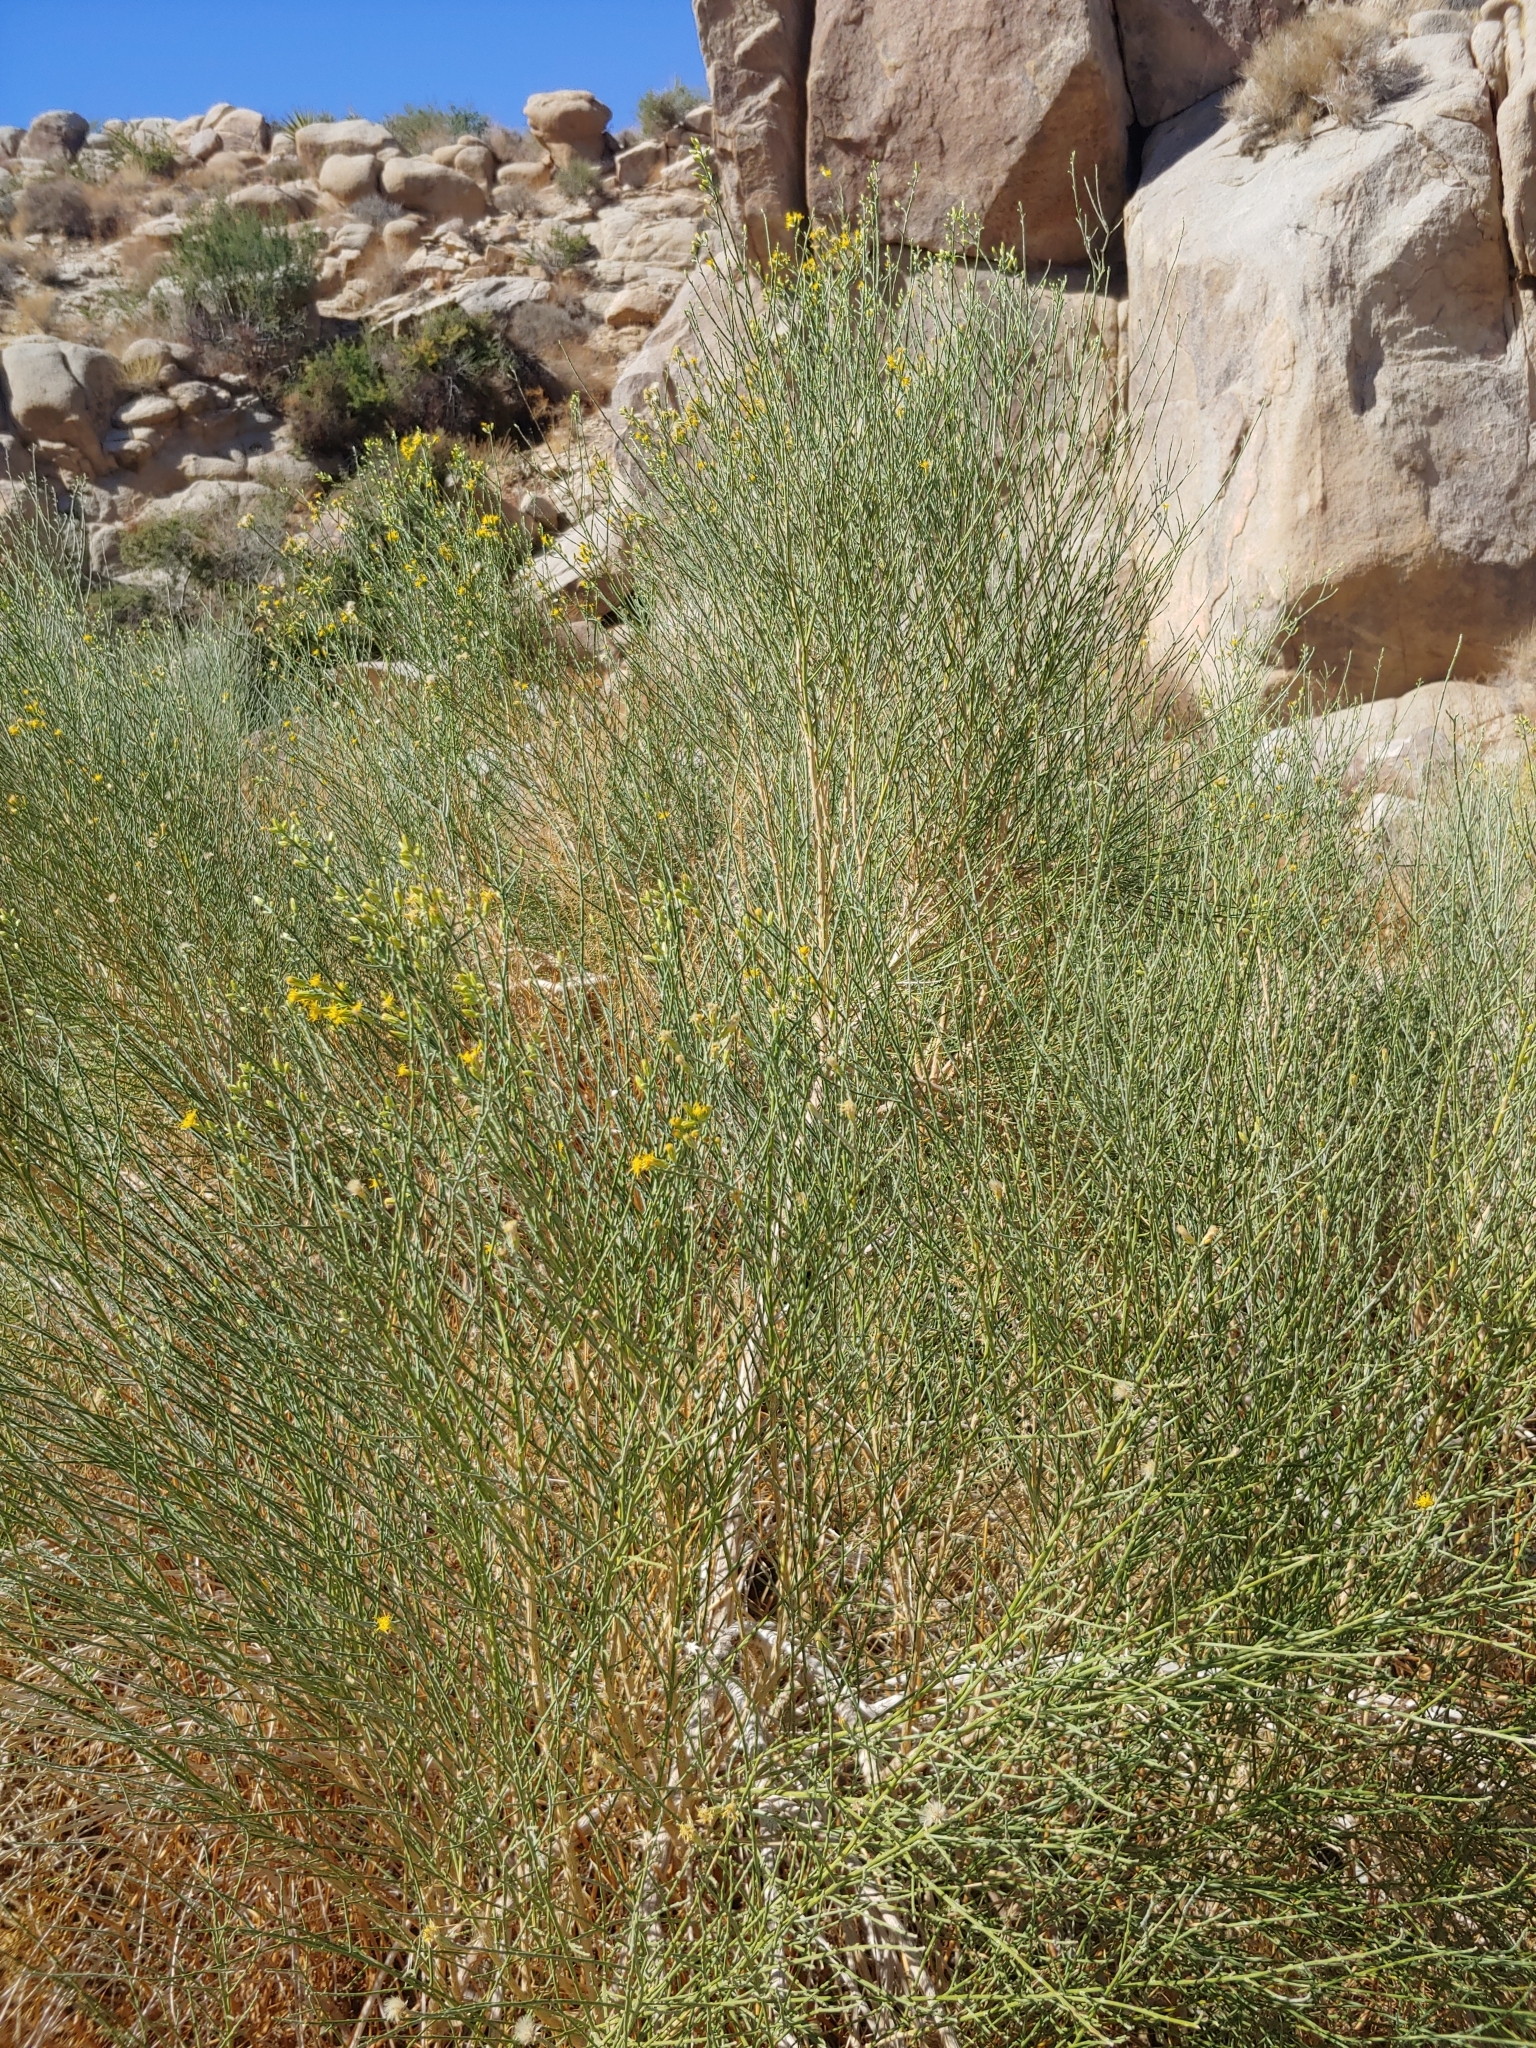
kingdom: Plantae
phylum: Tracheophyta
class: Magnoliopsida
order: Asterales
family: Asteraceae
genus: Lepidospartum
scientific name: Lepidospartum squamatum
